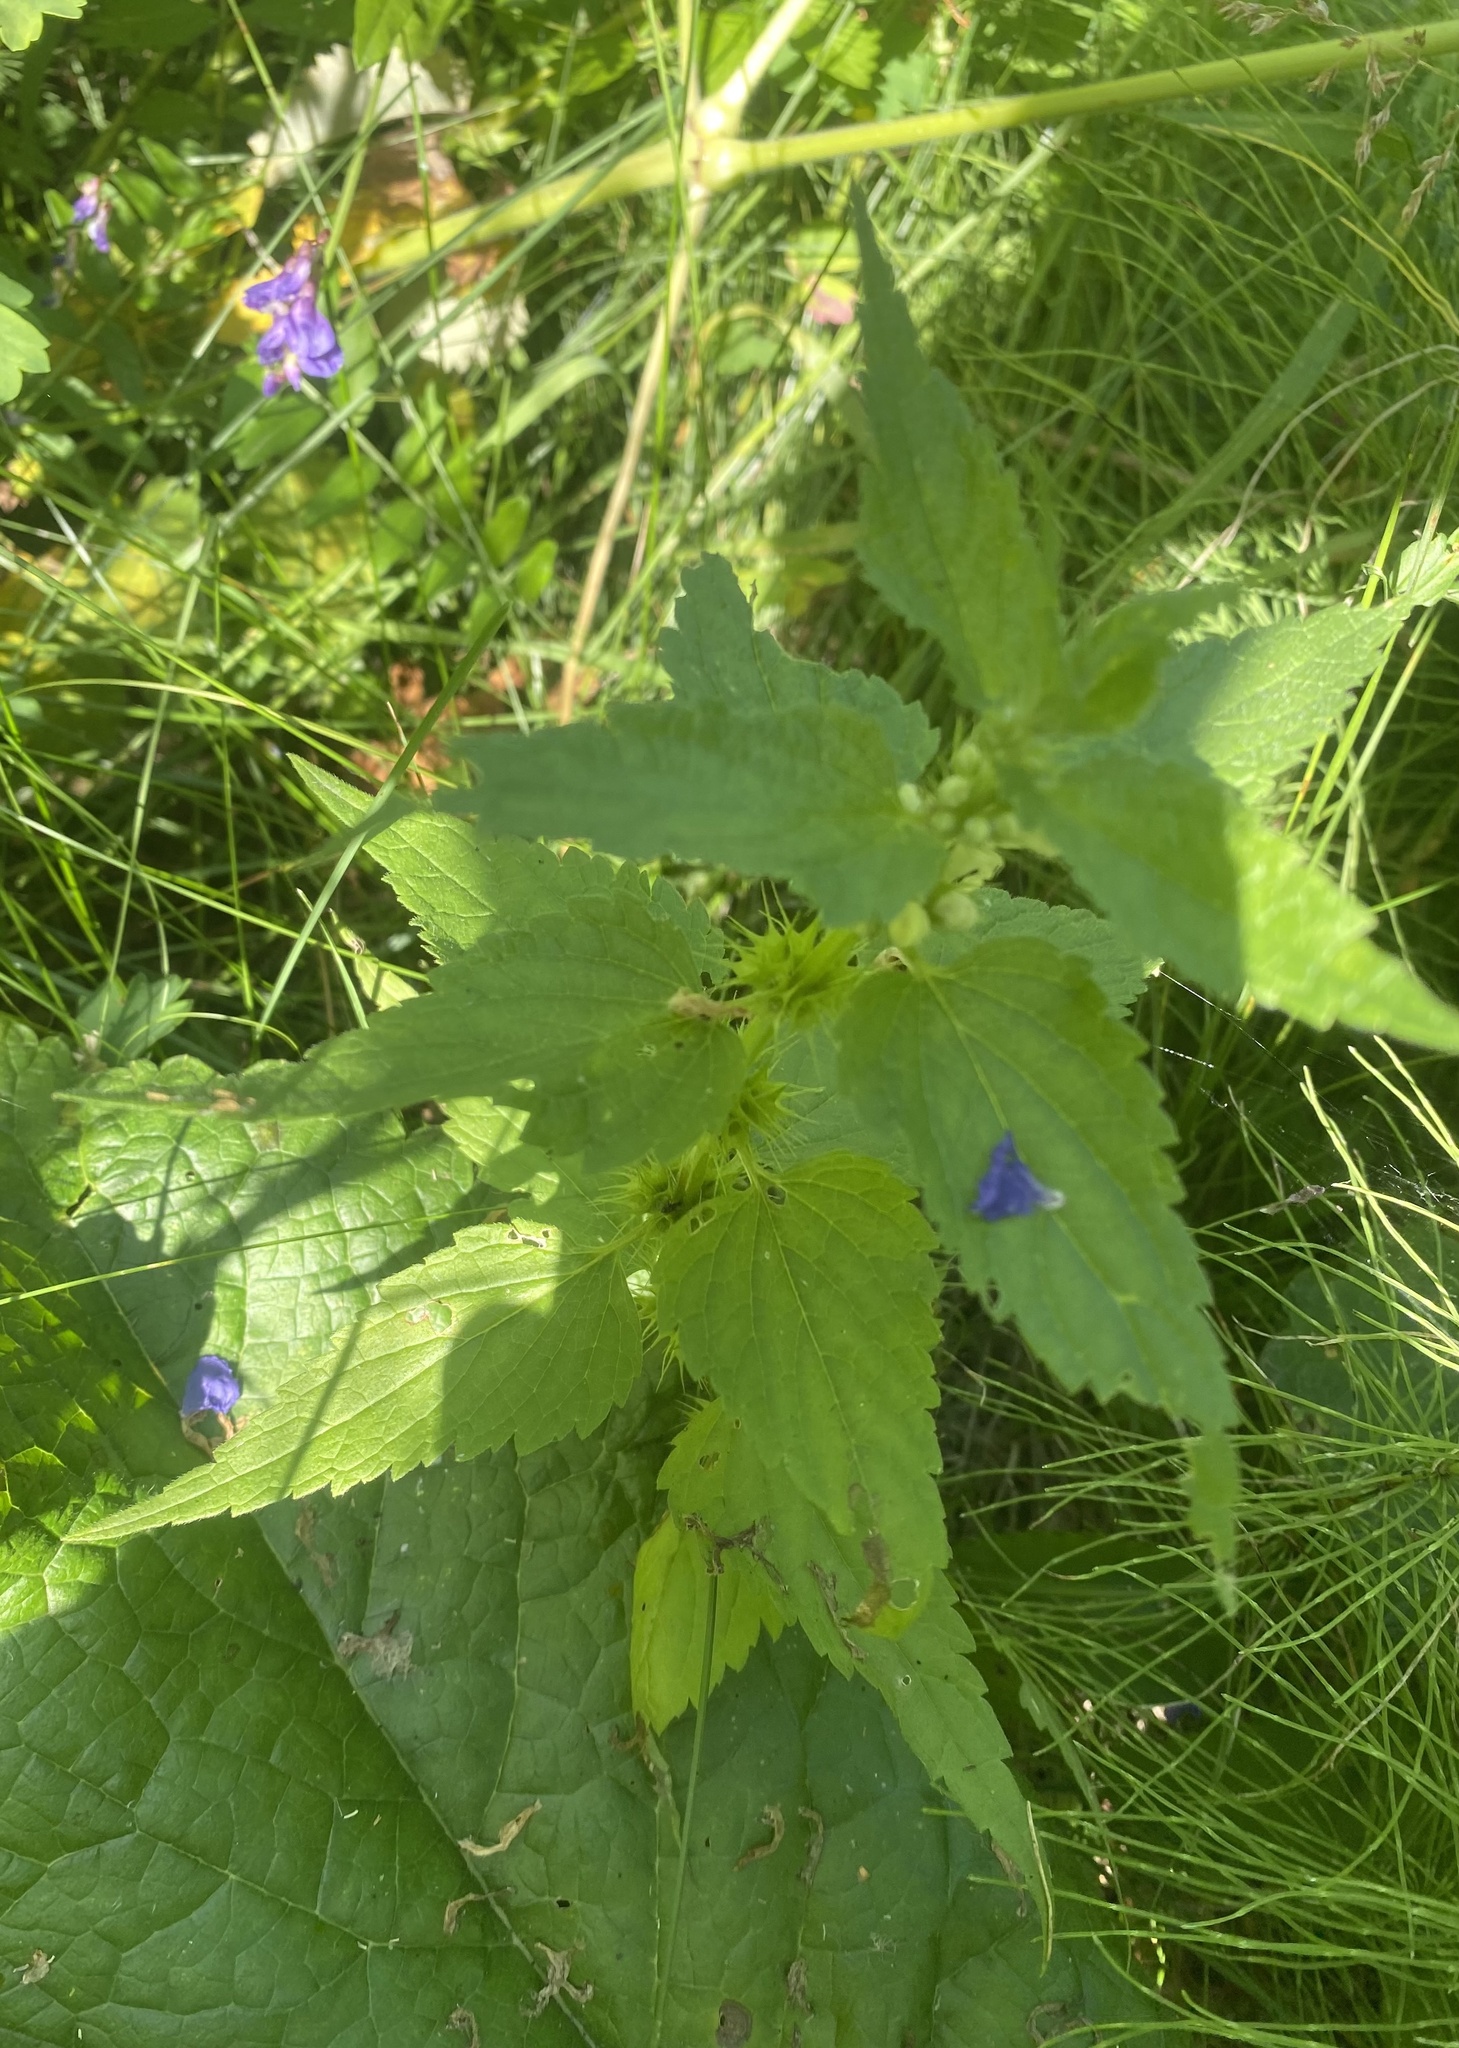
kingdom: Plantae
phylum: Tracheophyta
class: Magnoliopsida
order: Lamiales
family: Lamiaceae
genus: Lamium
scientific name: Lamium album
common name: White dead-nettle
